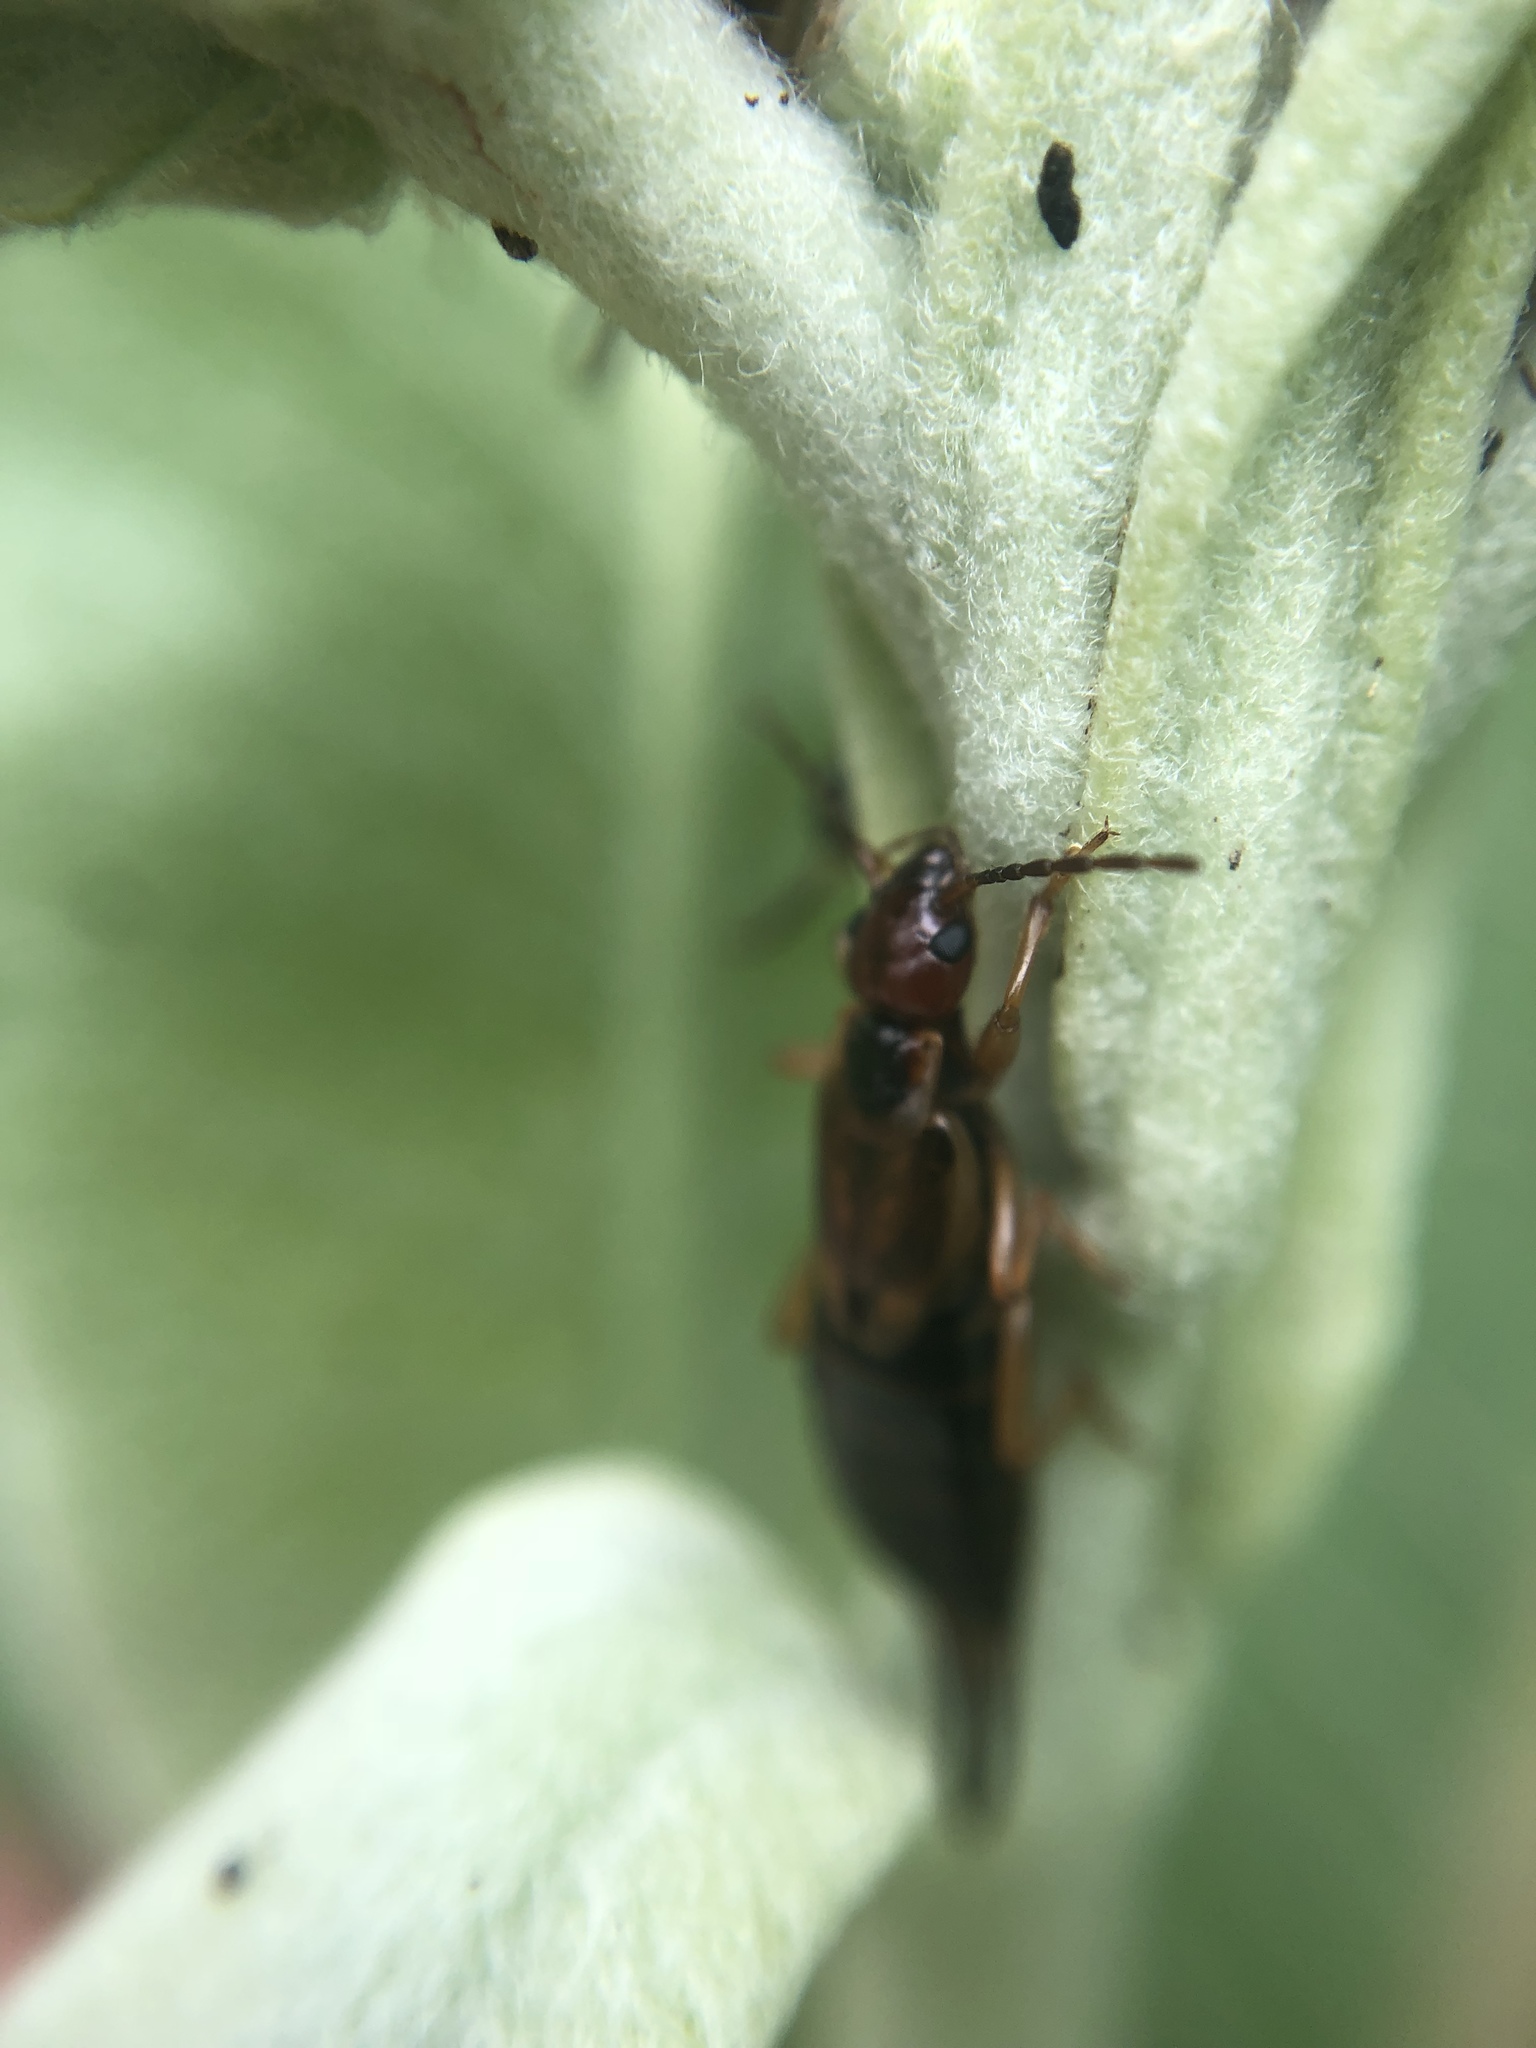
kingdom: Animalia
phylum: Arthropoda
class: Insecta
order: Dermaptera
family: Forficulidae
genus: Forficula
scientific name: Forficula
